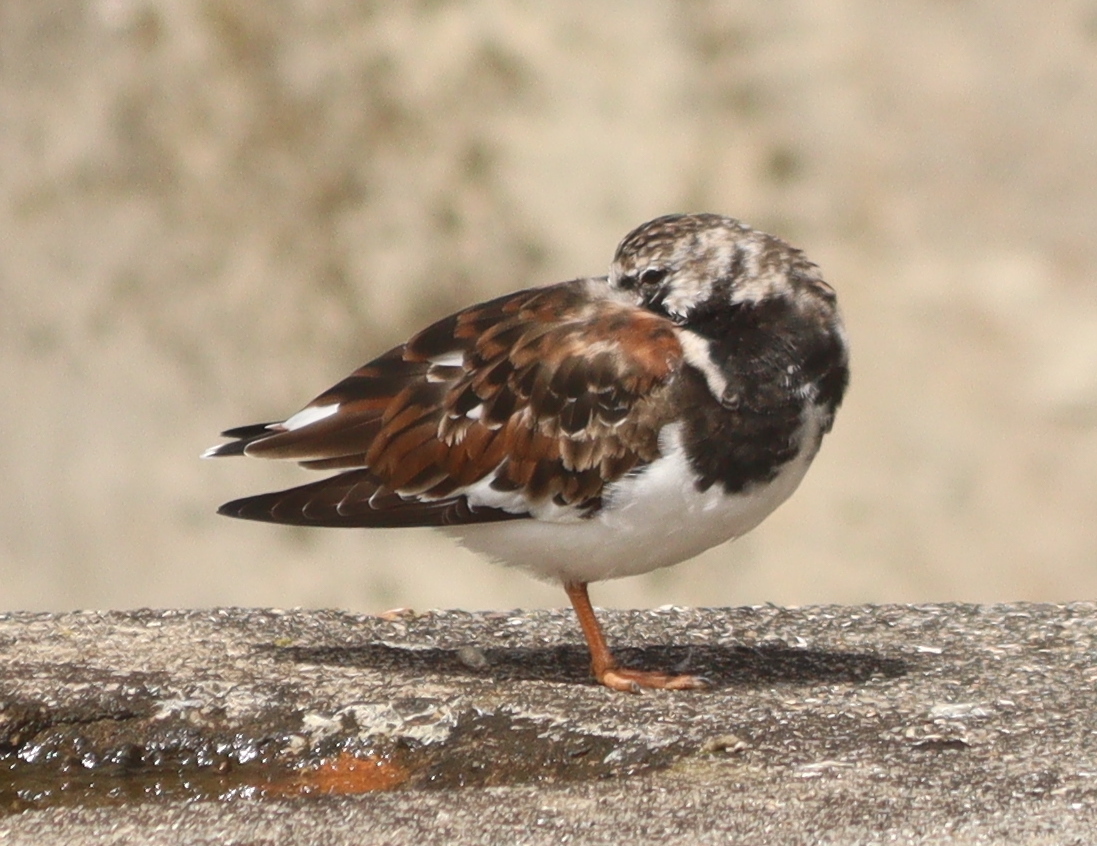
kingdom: Animalia
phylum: Chordata
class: Aves
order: Charadriiformes
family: Scolopacidae
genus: Arenaria
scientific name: Arenaria interpres
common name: Ruddy turnstone
